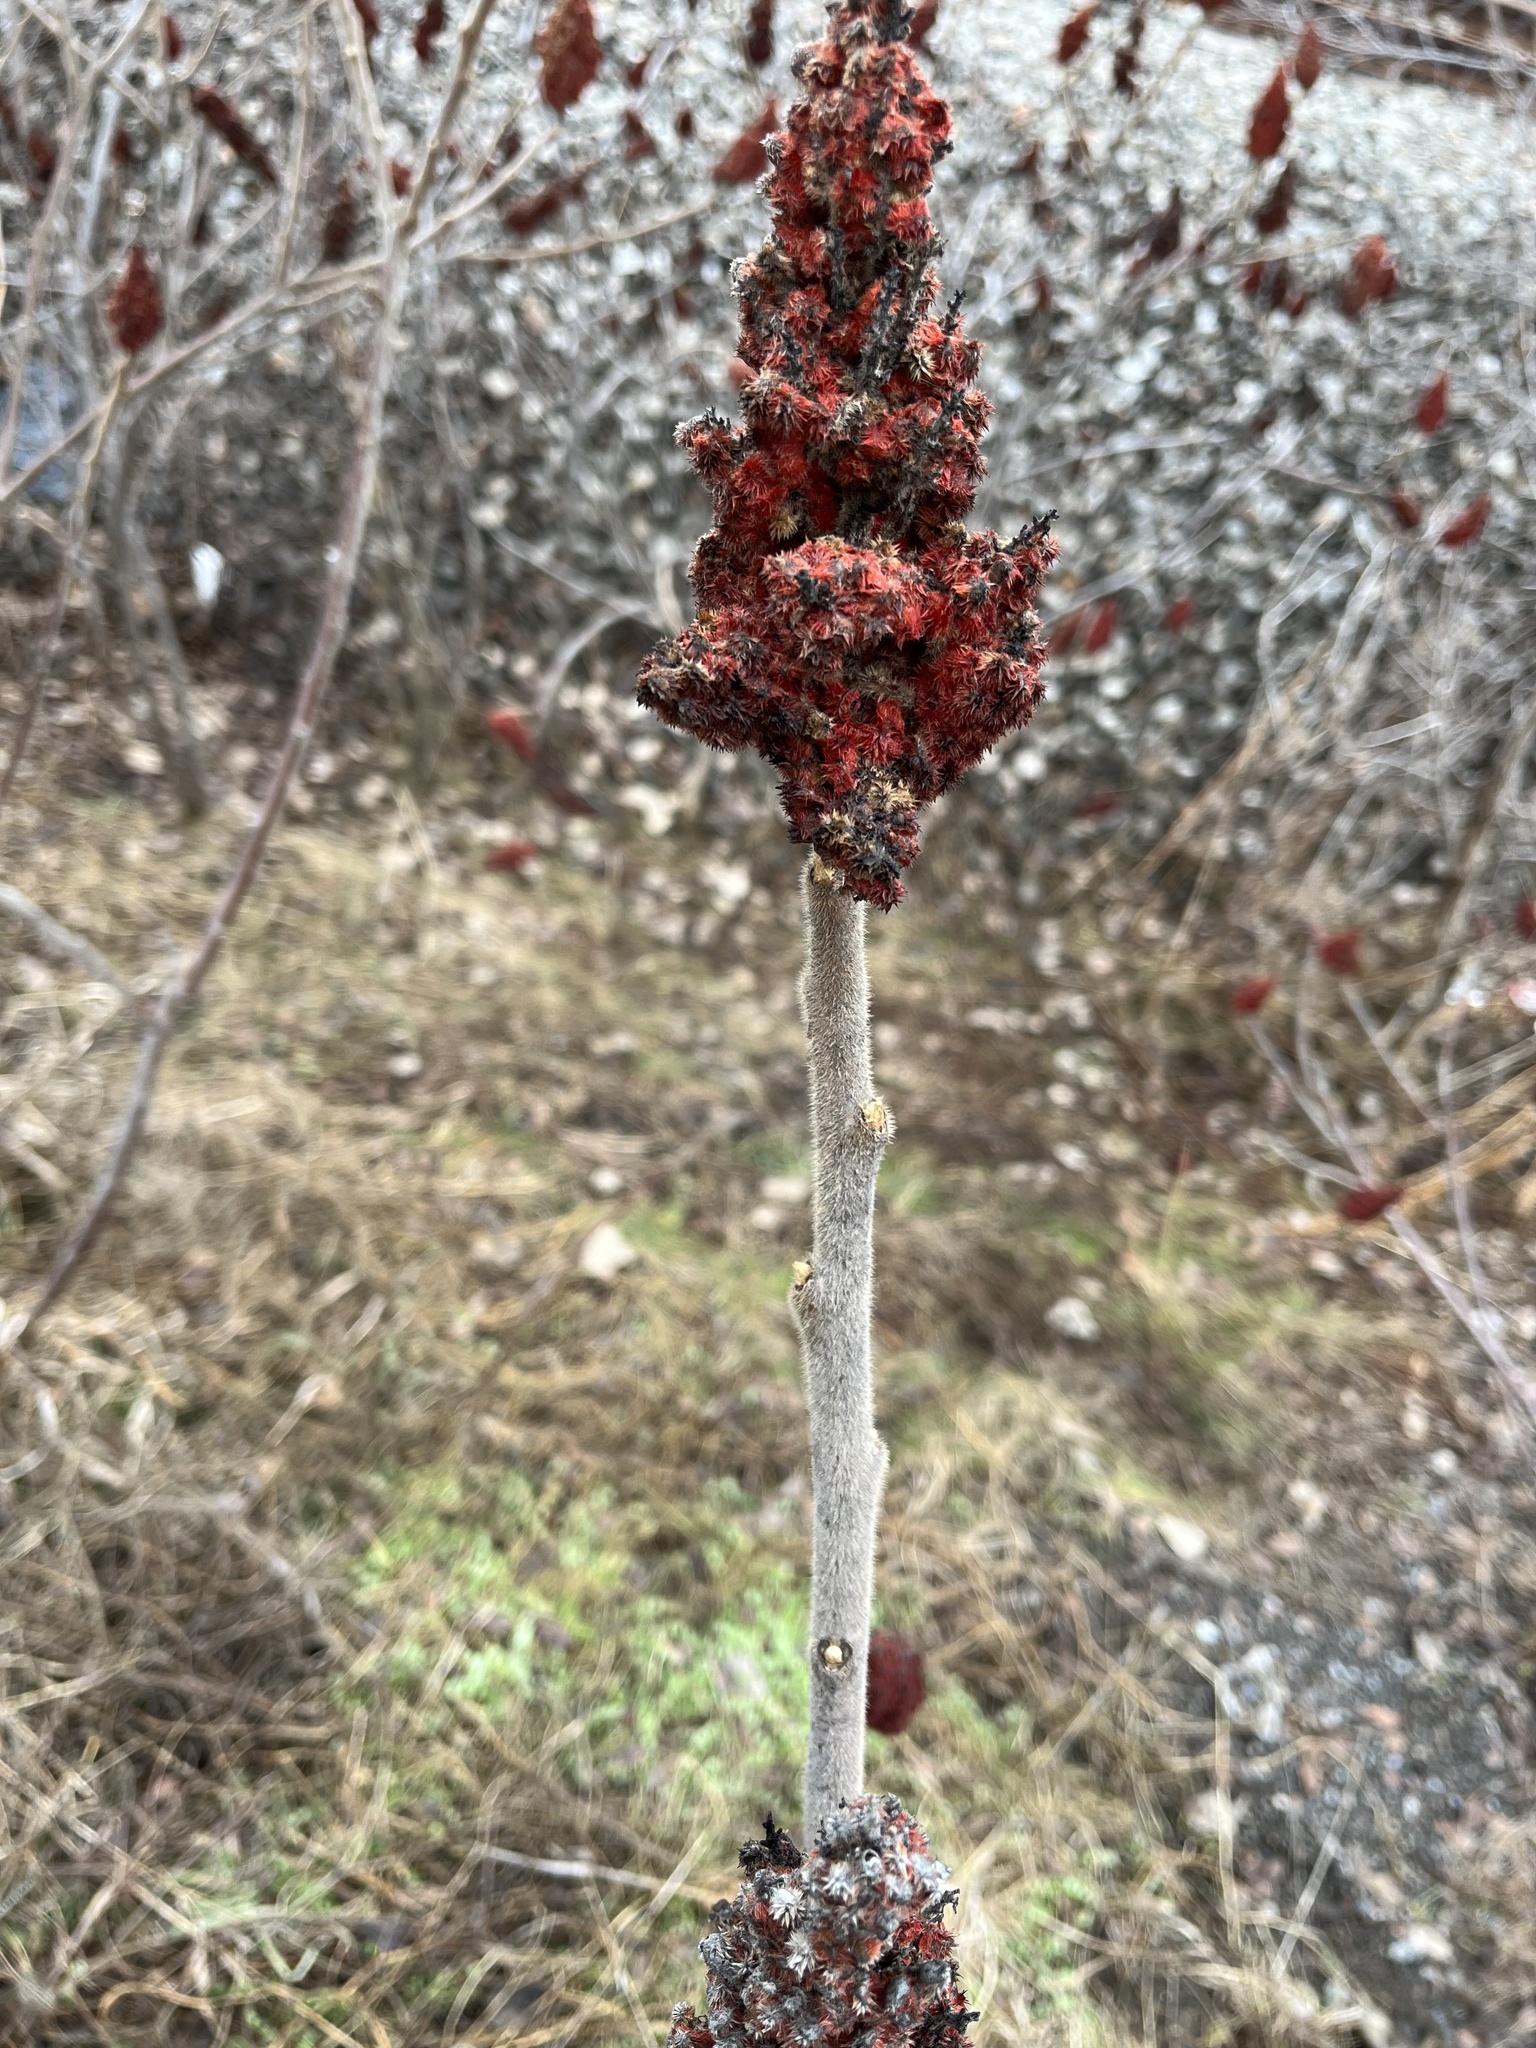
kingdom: Plantae
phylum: Tracheophyta
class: Magnoliopsida
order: Sapindales
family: Anacardiaceae
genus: Rhus
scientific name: Rhus typhina
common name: Staghorn sumac
